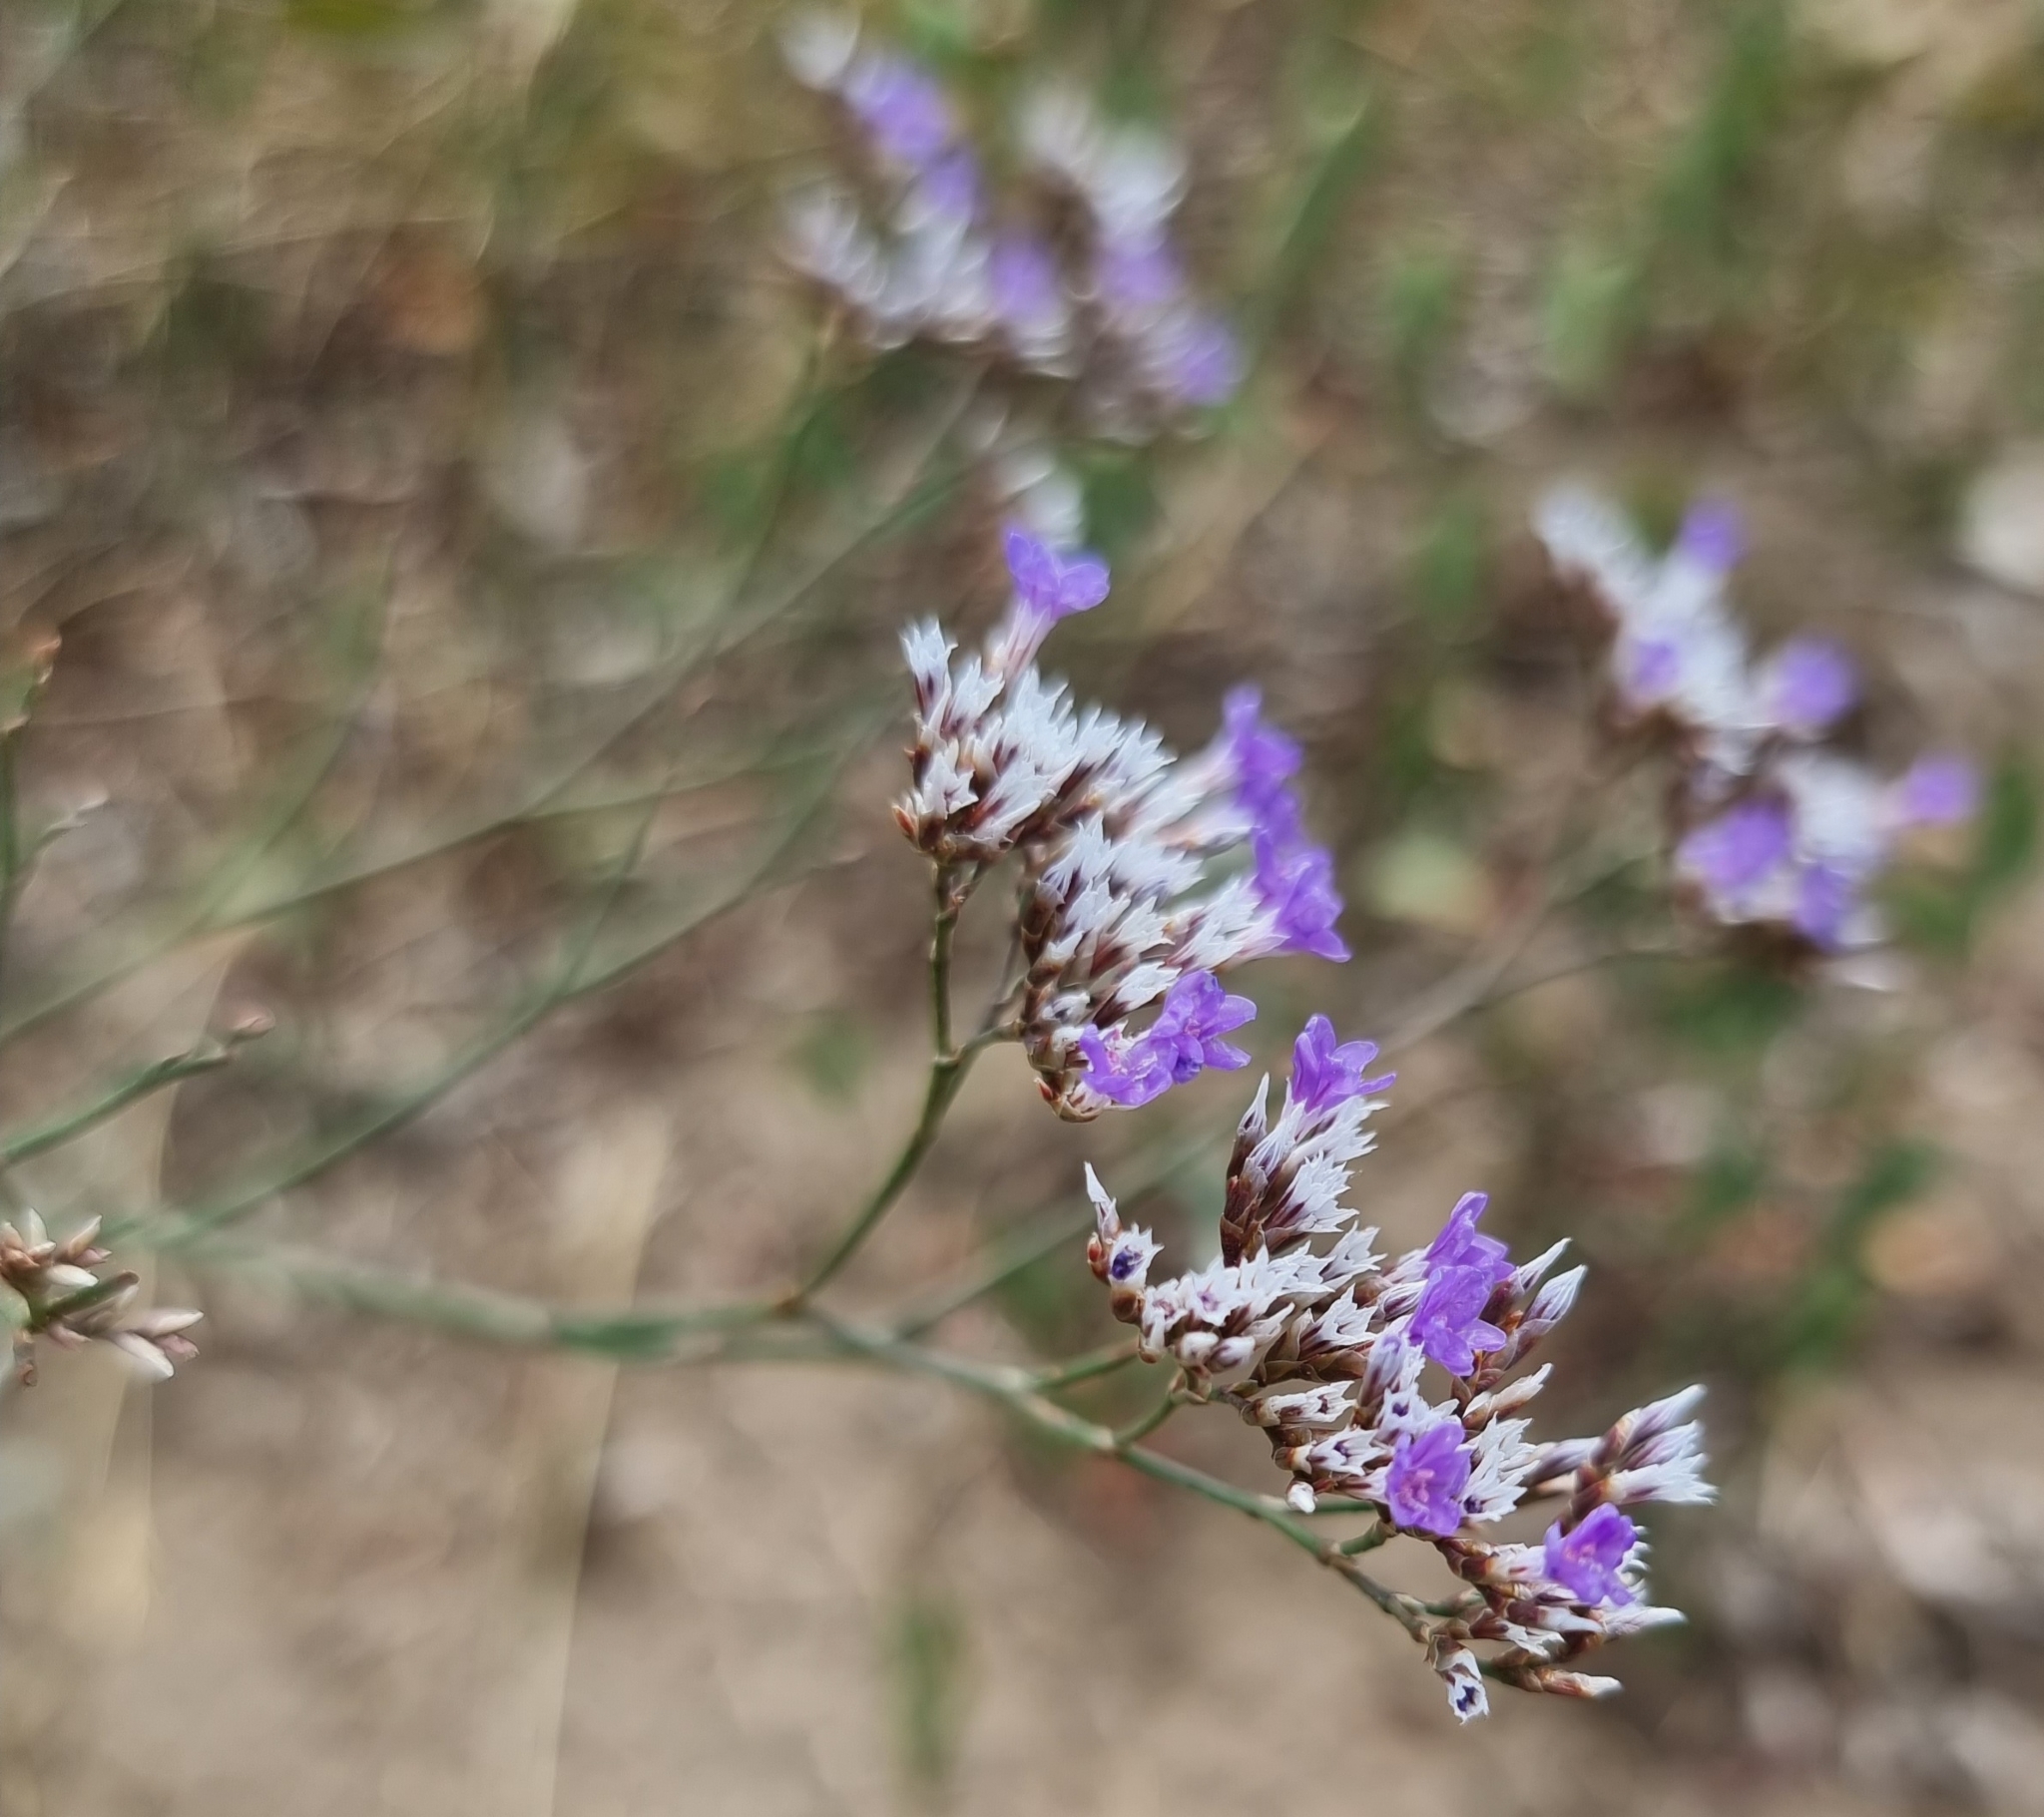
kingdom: Plantae
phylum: Tracheophyta
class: Magnoliopsida
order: Caryophyllales
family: Plumbaginaceae
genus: Limonium
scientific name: Limonium gmelini
